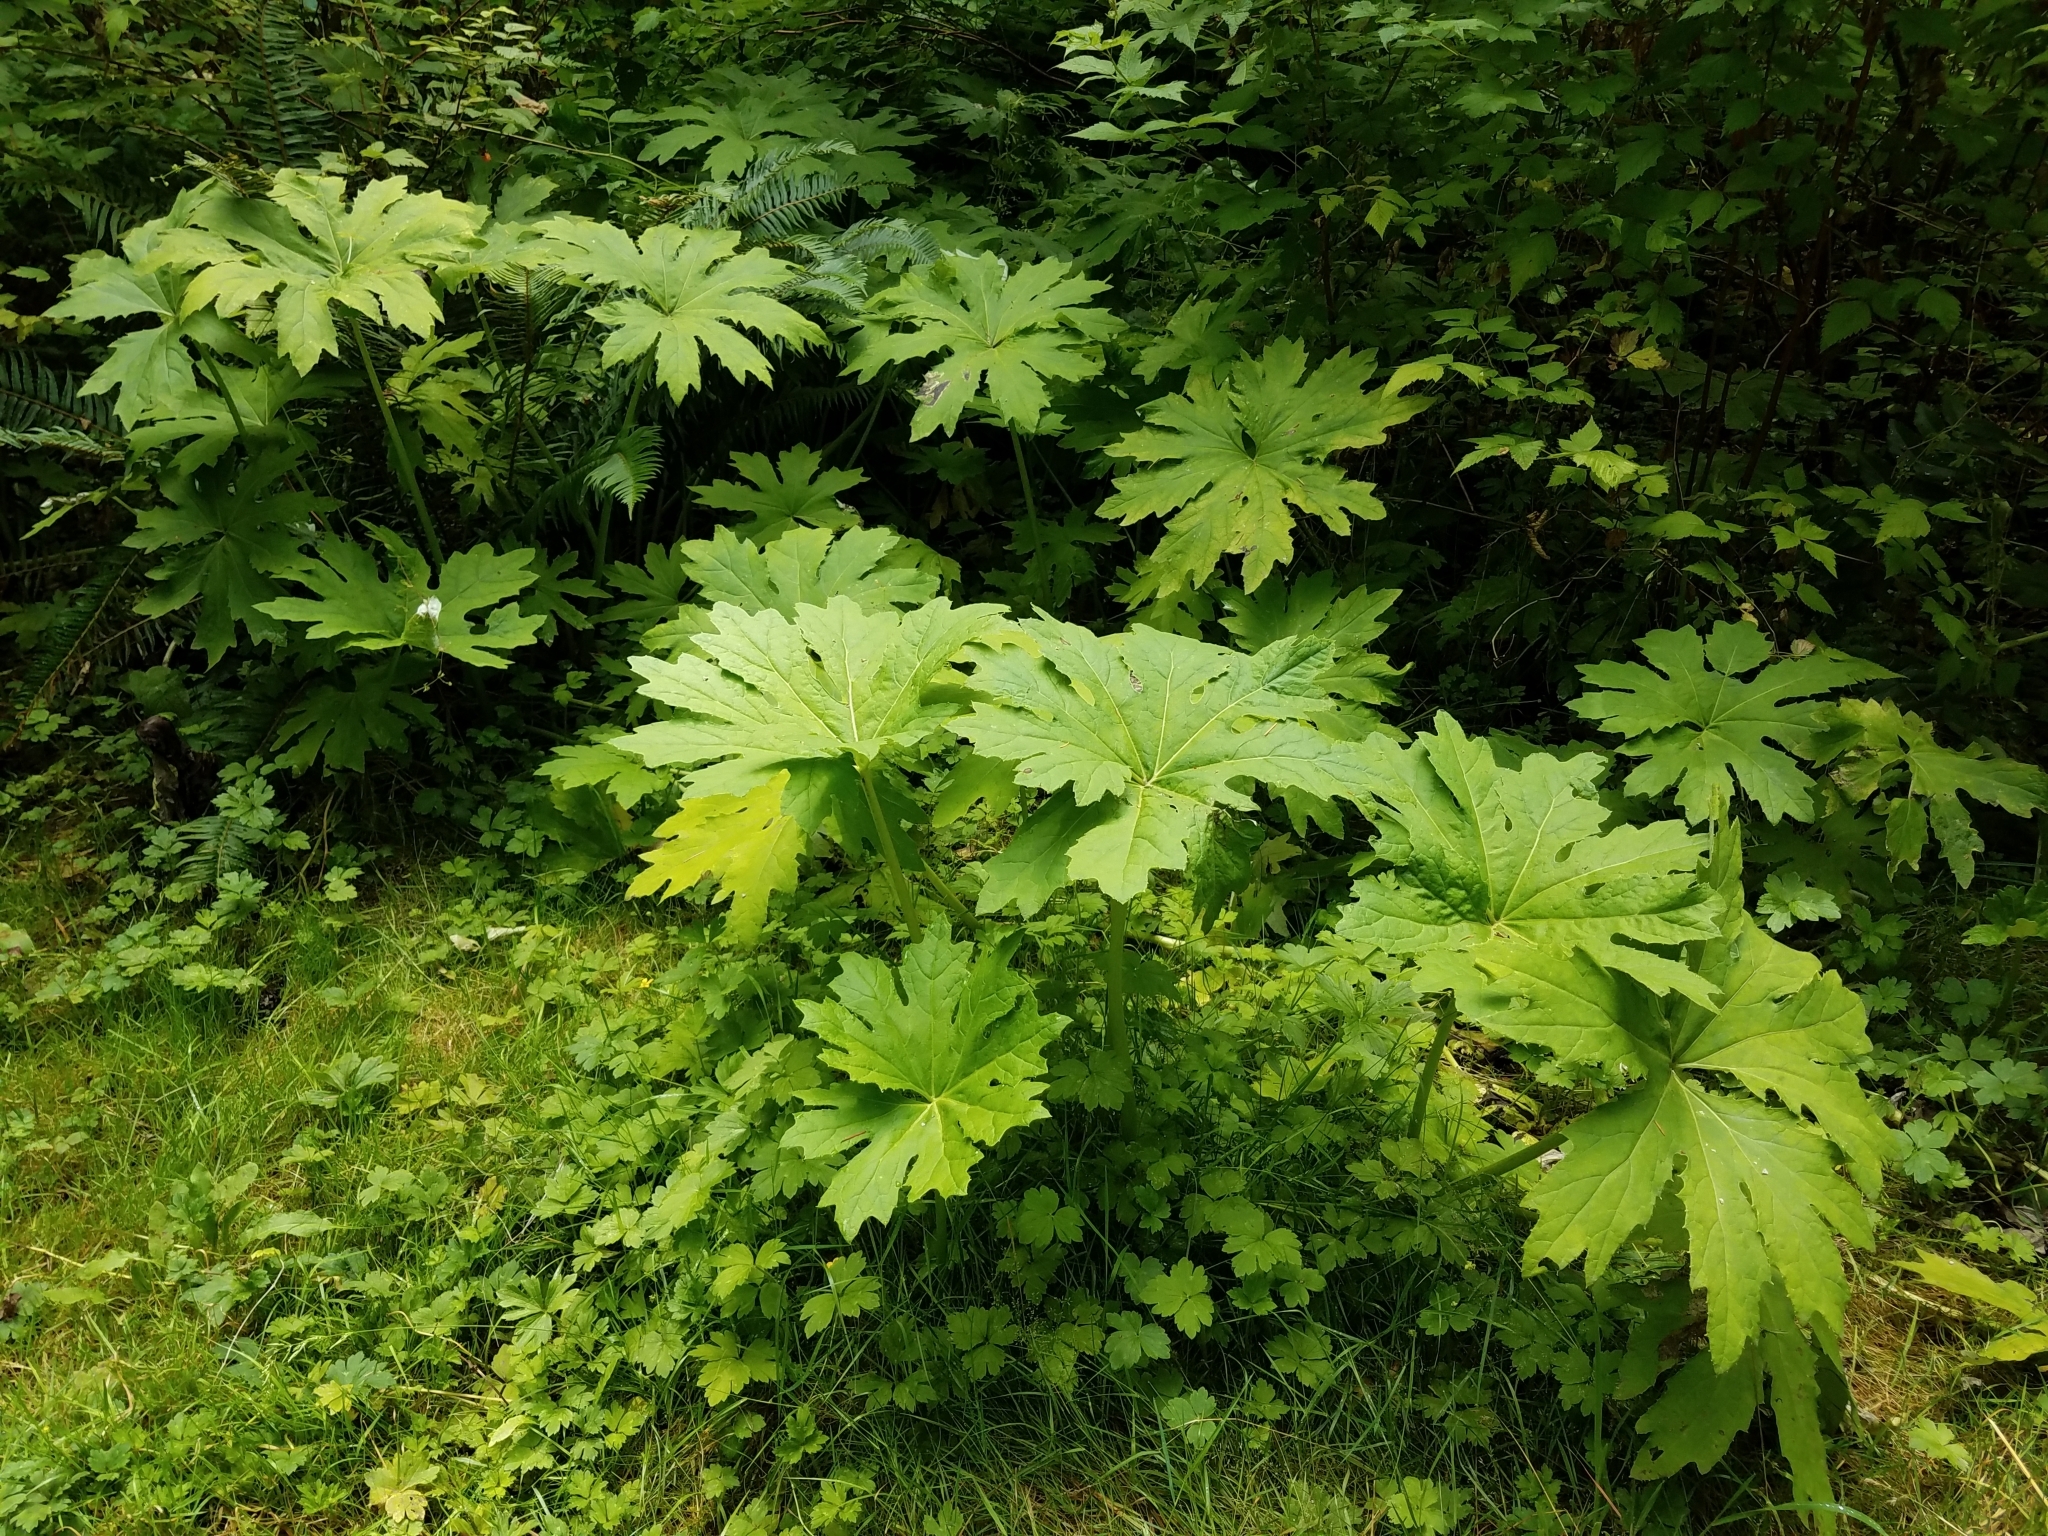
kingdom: Plantae
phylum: Tracheophyta
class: Magnoliopsida
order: Asterales
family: Asteraceae
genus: Petasites
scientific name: Petasites frigidus
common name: Arctic butterbur
